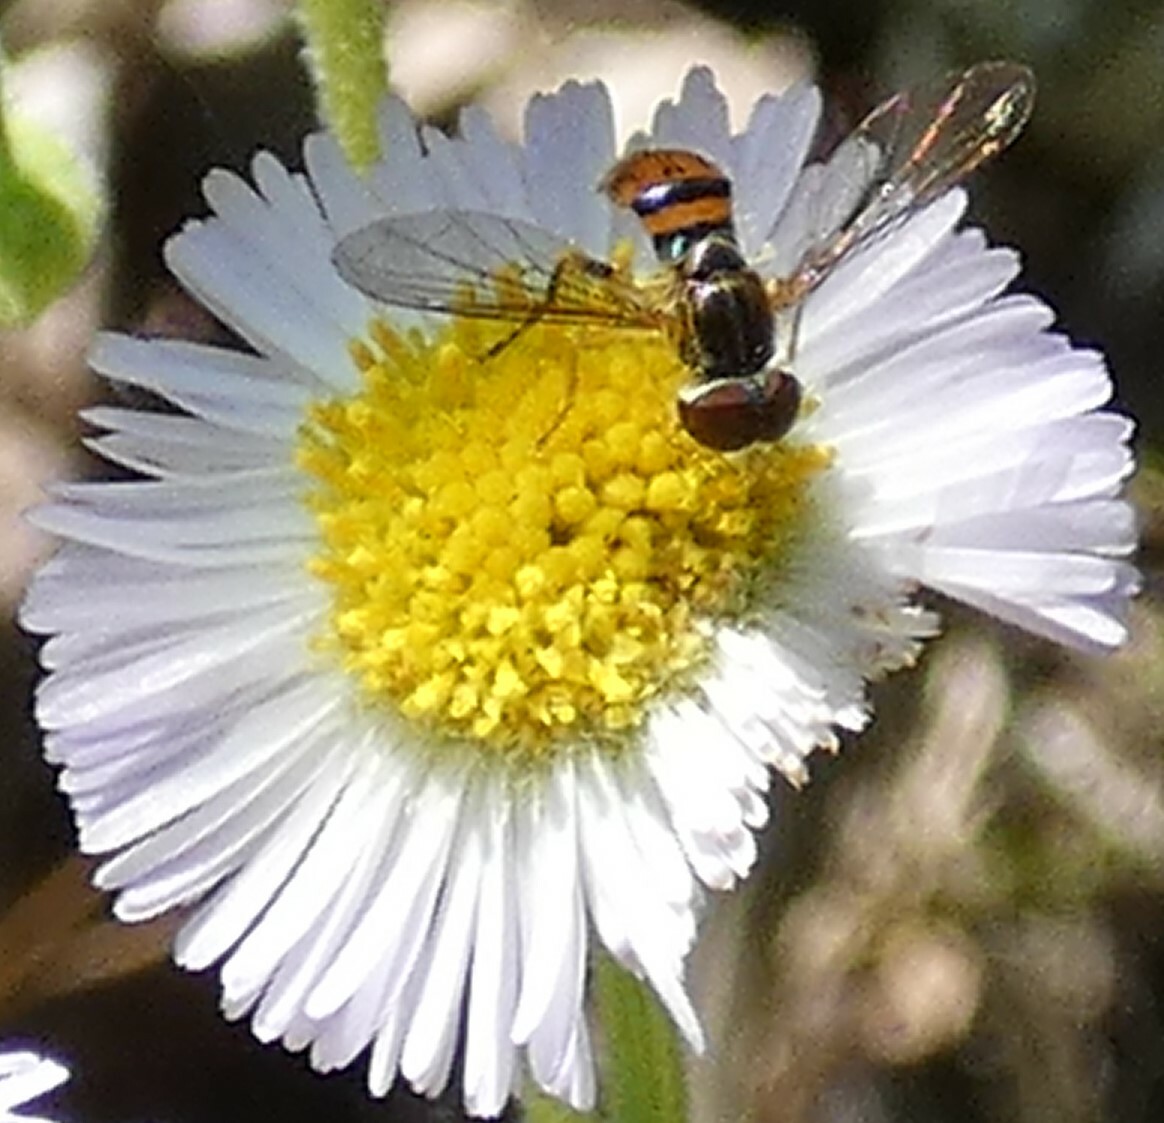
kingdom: Animalia
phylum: Arthropoda
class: Insecta
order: Diptera
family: Syrphidae
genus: Toxomerus
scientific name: Toxomerus boscii
